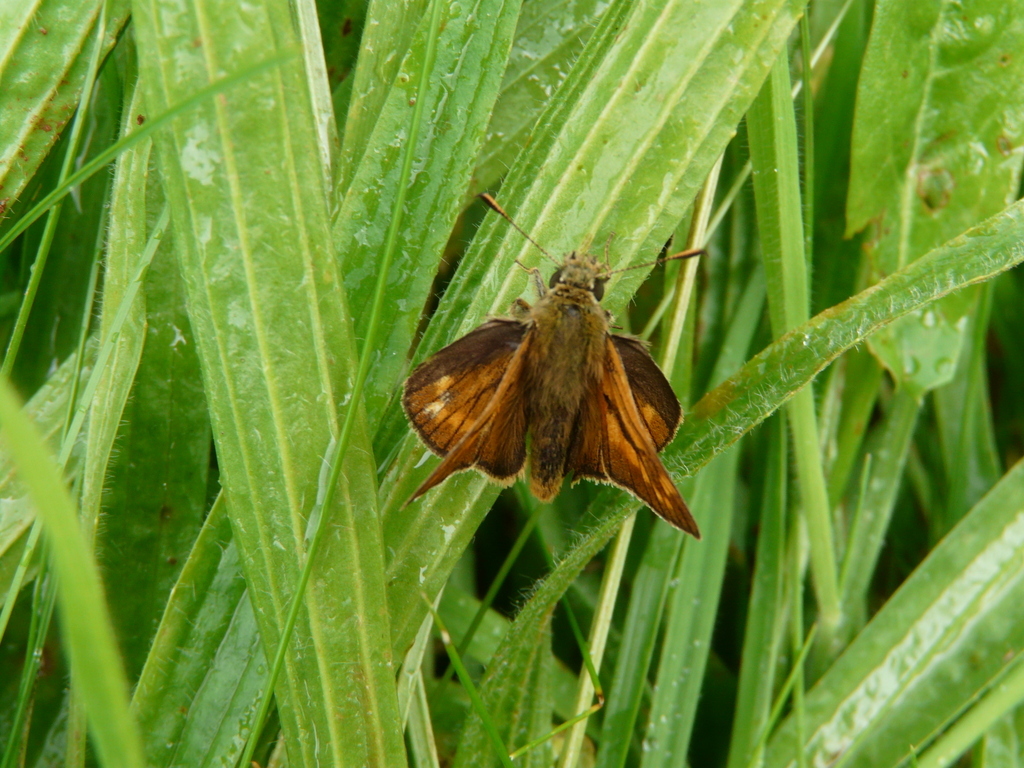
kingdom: Animalia
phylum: Arthropoda
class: Insecta
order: Lepidoptera
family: Hesperiidae
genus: Ochlodes
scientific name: Ochlodes venata
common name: Large skipper
